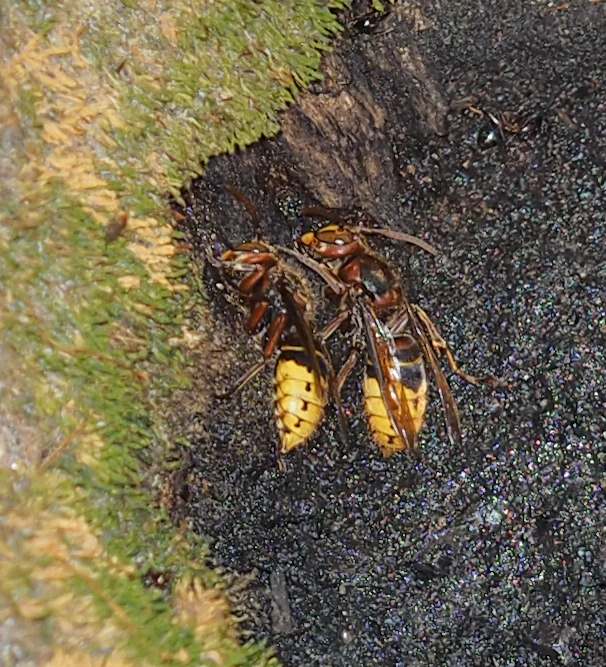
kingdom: Animalia
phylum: Arthropoda
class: Insecta
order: Hymenoptera
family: Vespidae
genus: Vespa
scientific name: Vespa crabro
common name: Hornet
